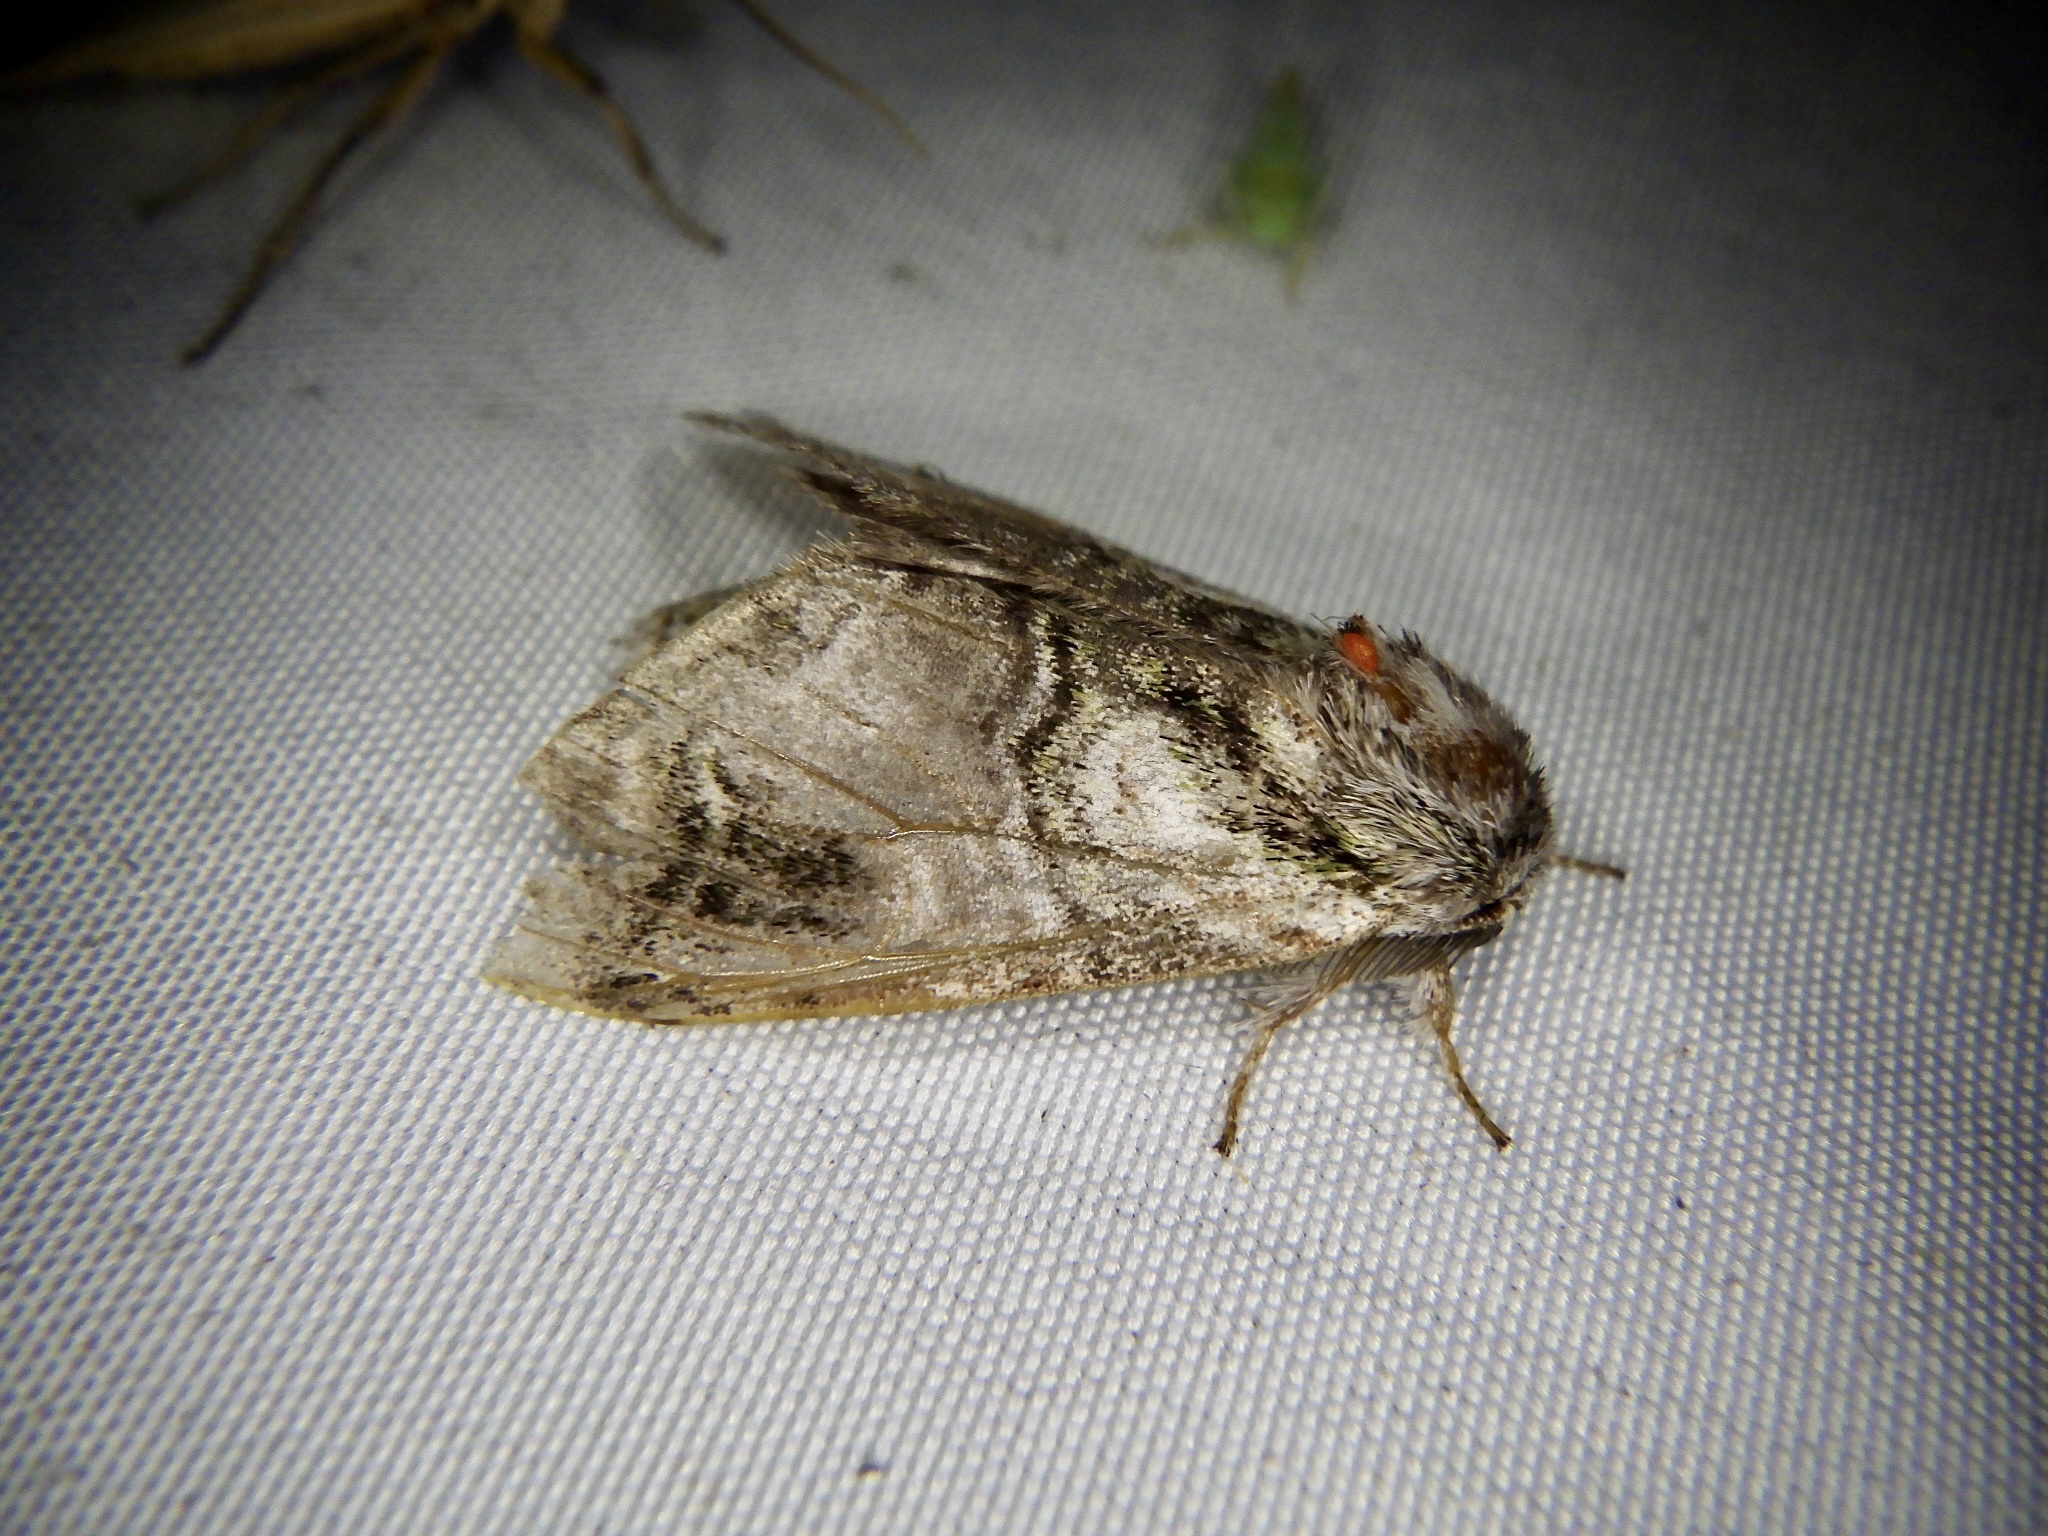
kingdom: Animalia
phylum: Arthropoda
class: Insecta
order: Lepidoptera
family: Notodontidae
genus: Shachia
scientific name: Shachia circumscripta
